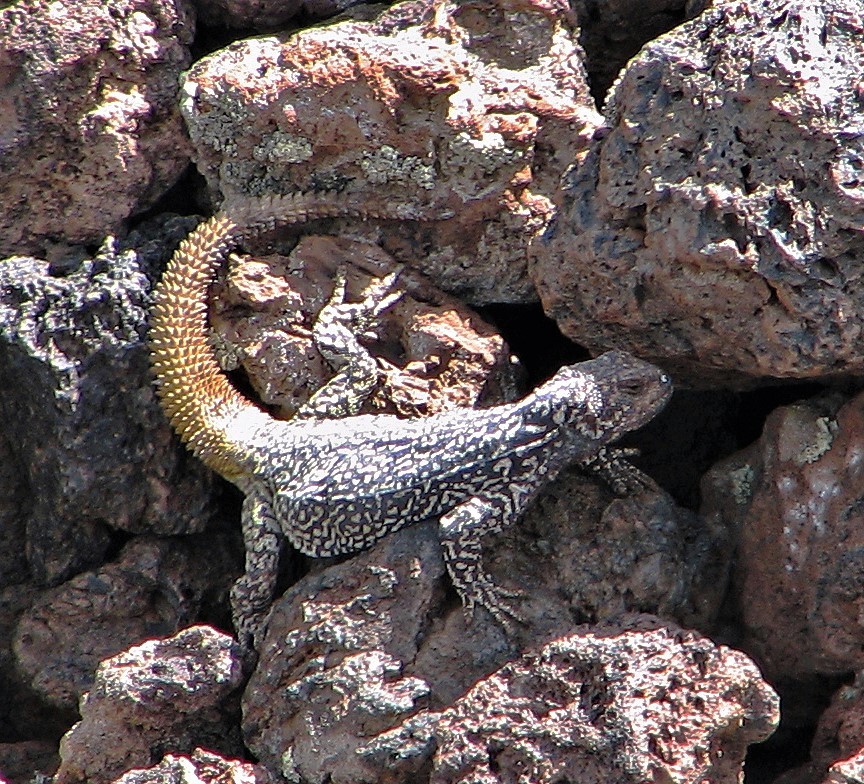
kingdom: Animalia
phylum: Chordata
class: Squamata
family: Liolaemidae
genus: Phymaturus
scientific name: Phymaturus roigorum
